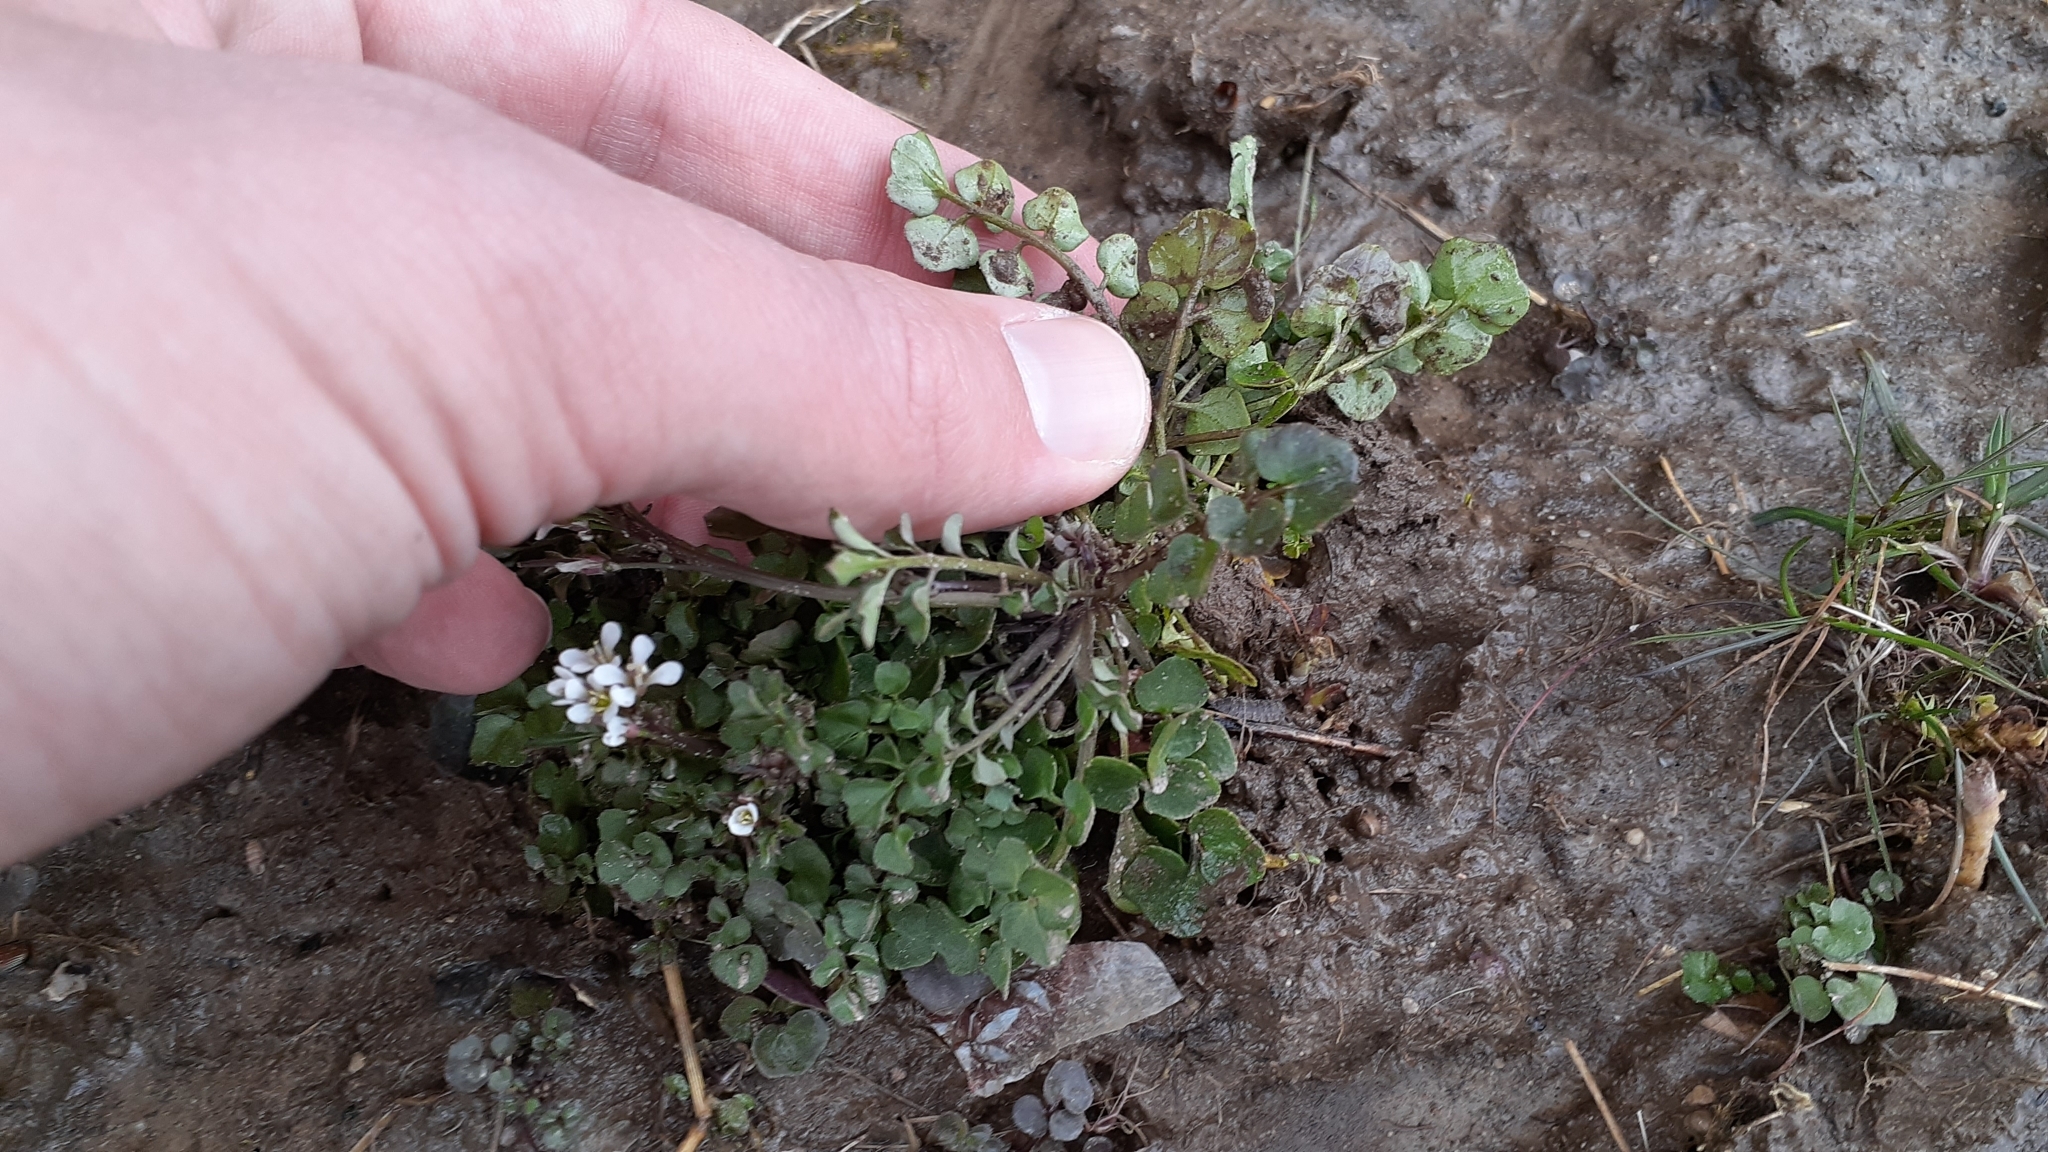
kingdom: Plantae
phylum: Tracheophyta
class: Magnoliopsida
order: Brassicales
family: Brassicaceae
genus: Cardamine
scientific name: Cardamine hirsuta
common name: Hairy bittercress
